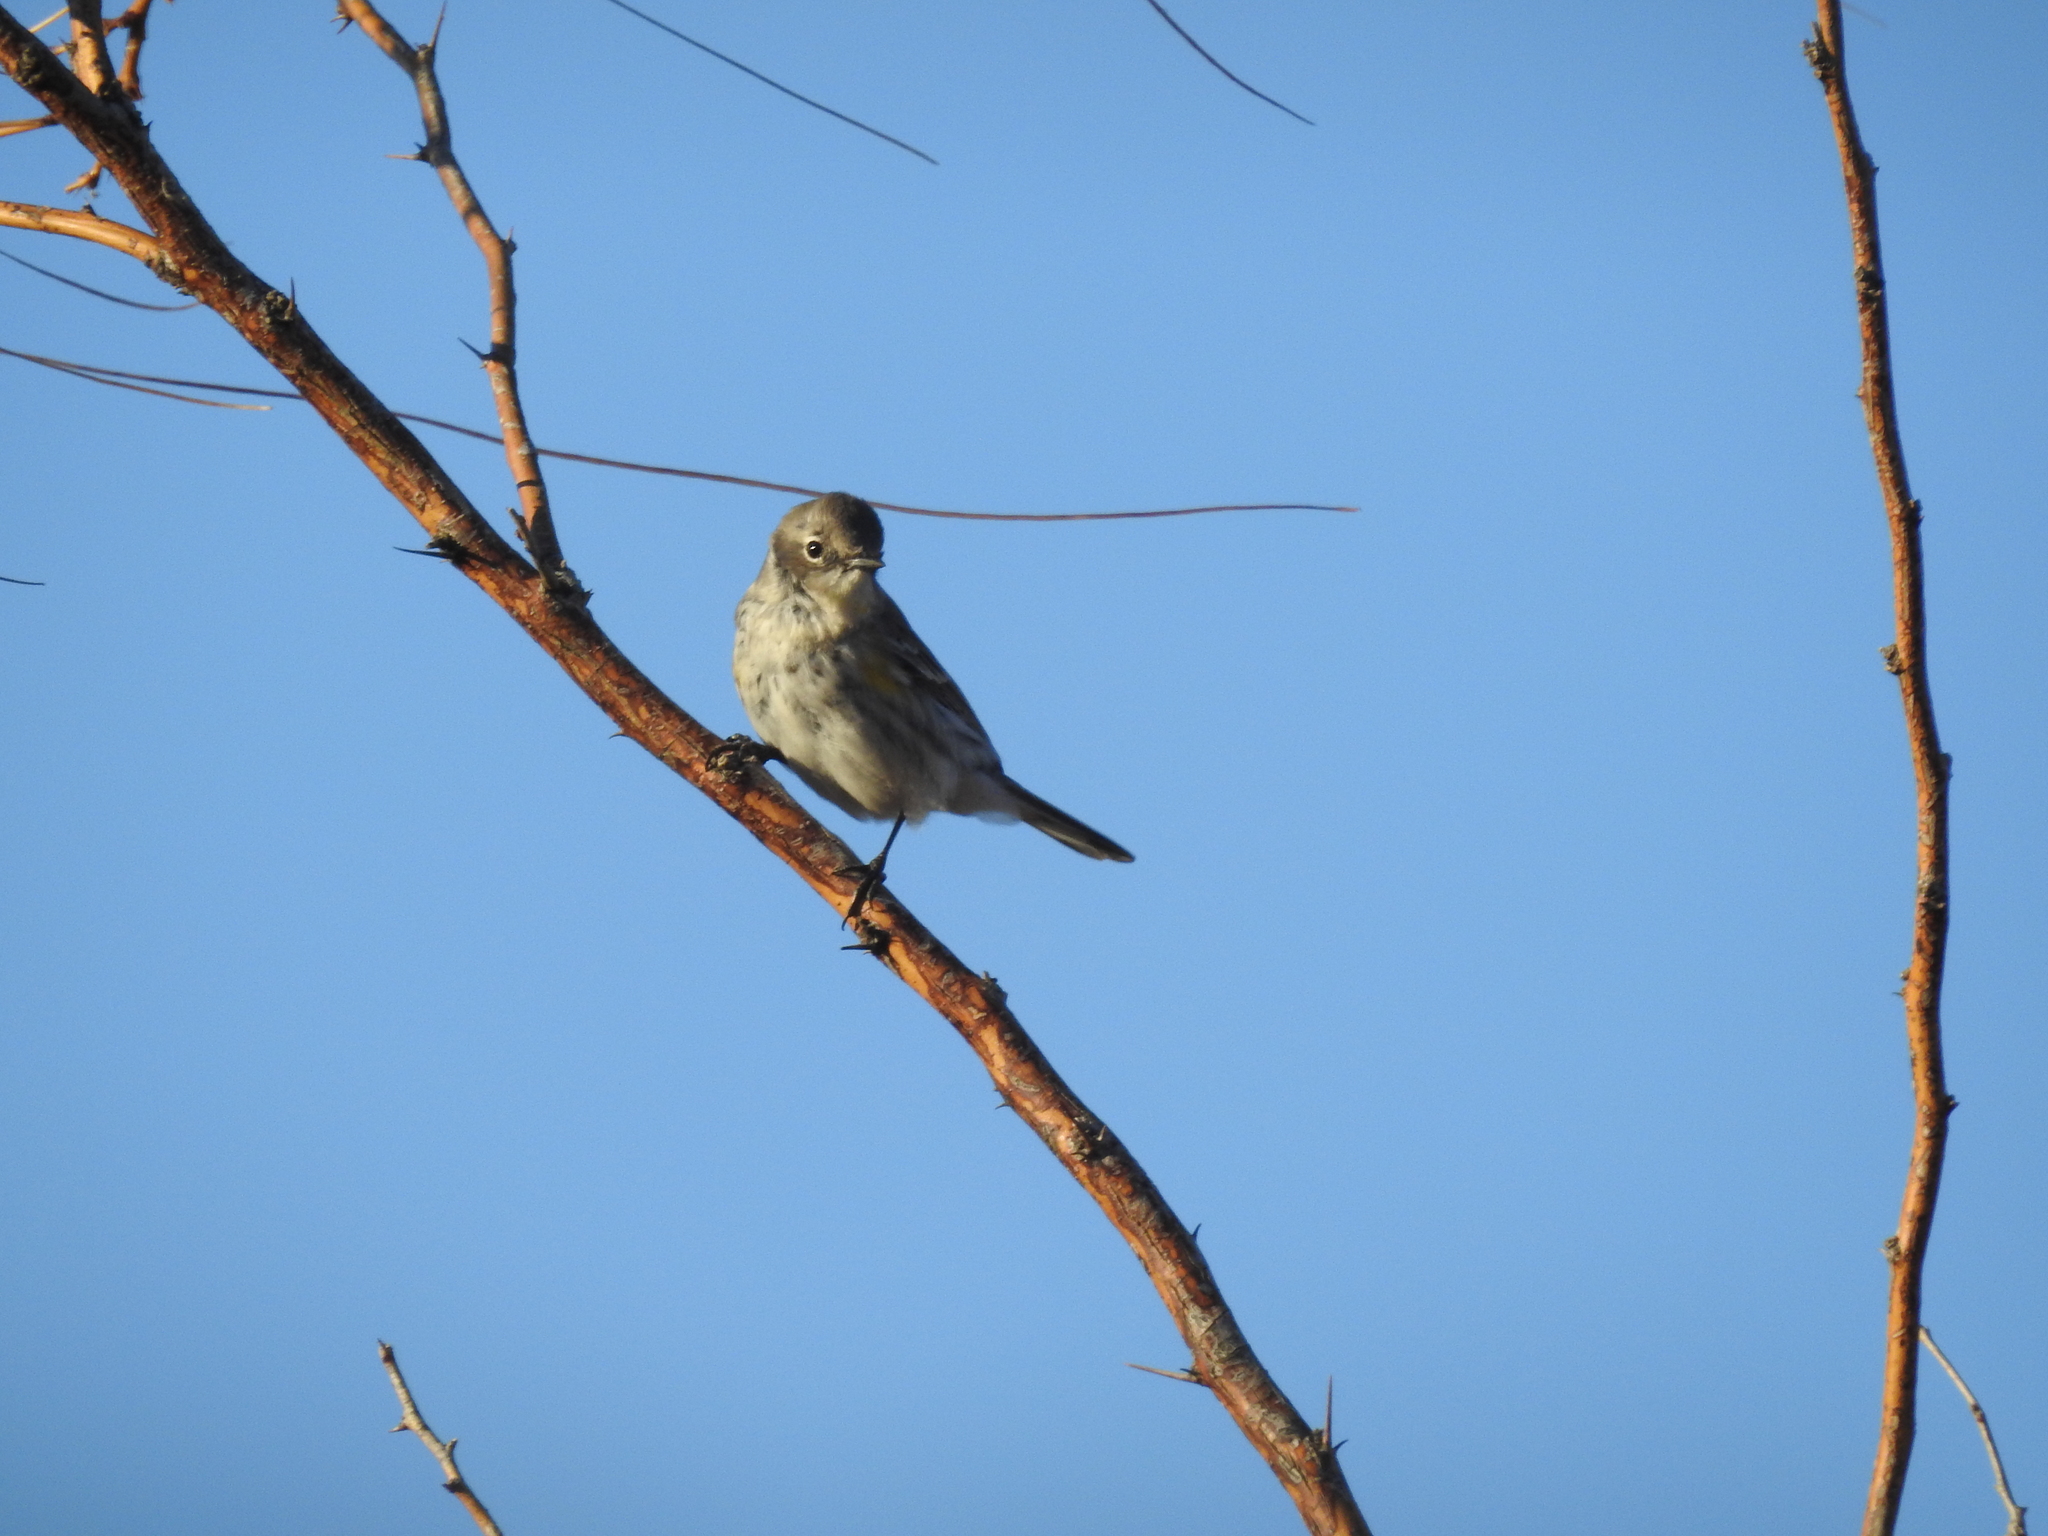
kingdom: Animalia
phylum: Chordata
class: Aves
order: Passeriformes
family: Parulidae
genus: Setophaga
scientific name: Setophaga coronata
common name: Myrtle warbler
